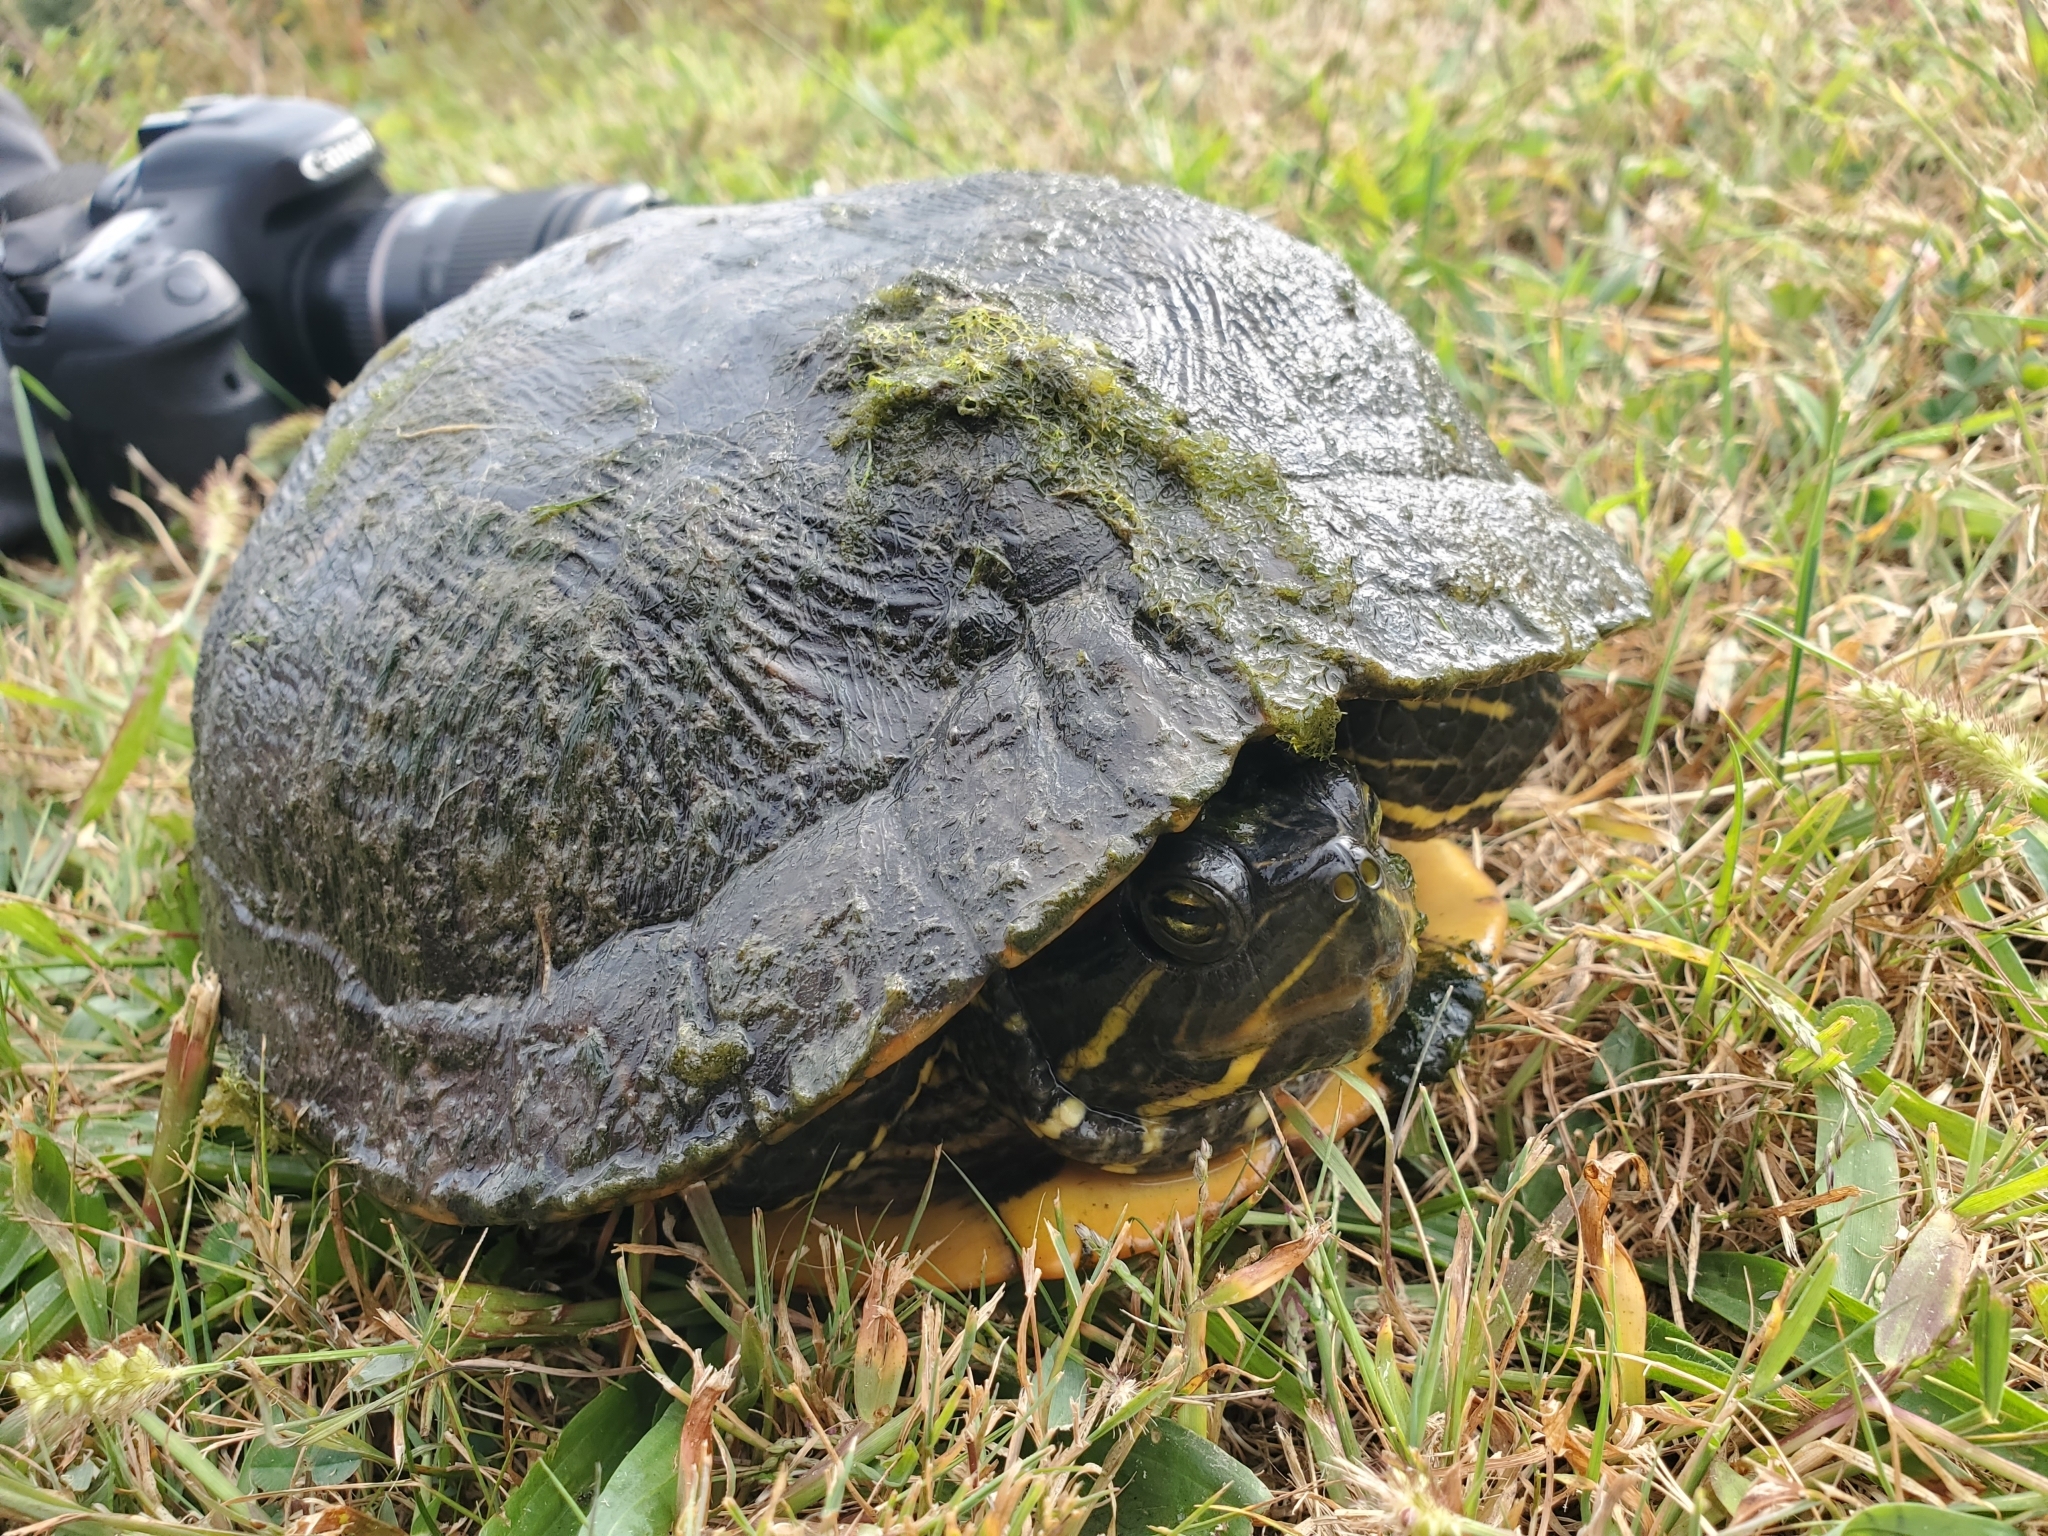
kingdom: Animalia
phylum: Chordata
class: Testudines
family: Emydidae
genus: Trachemys
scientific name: Trachemys scripta
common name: Slider
